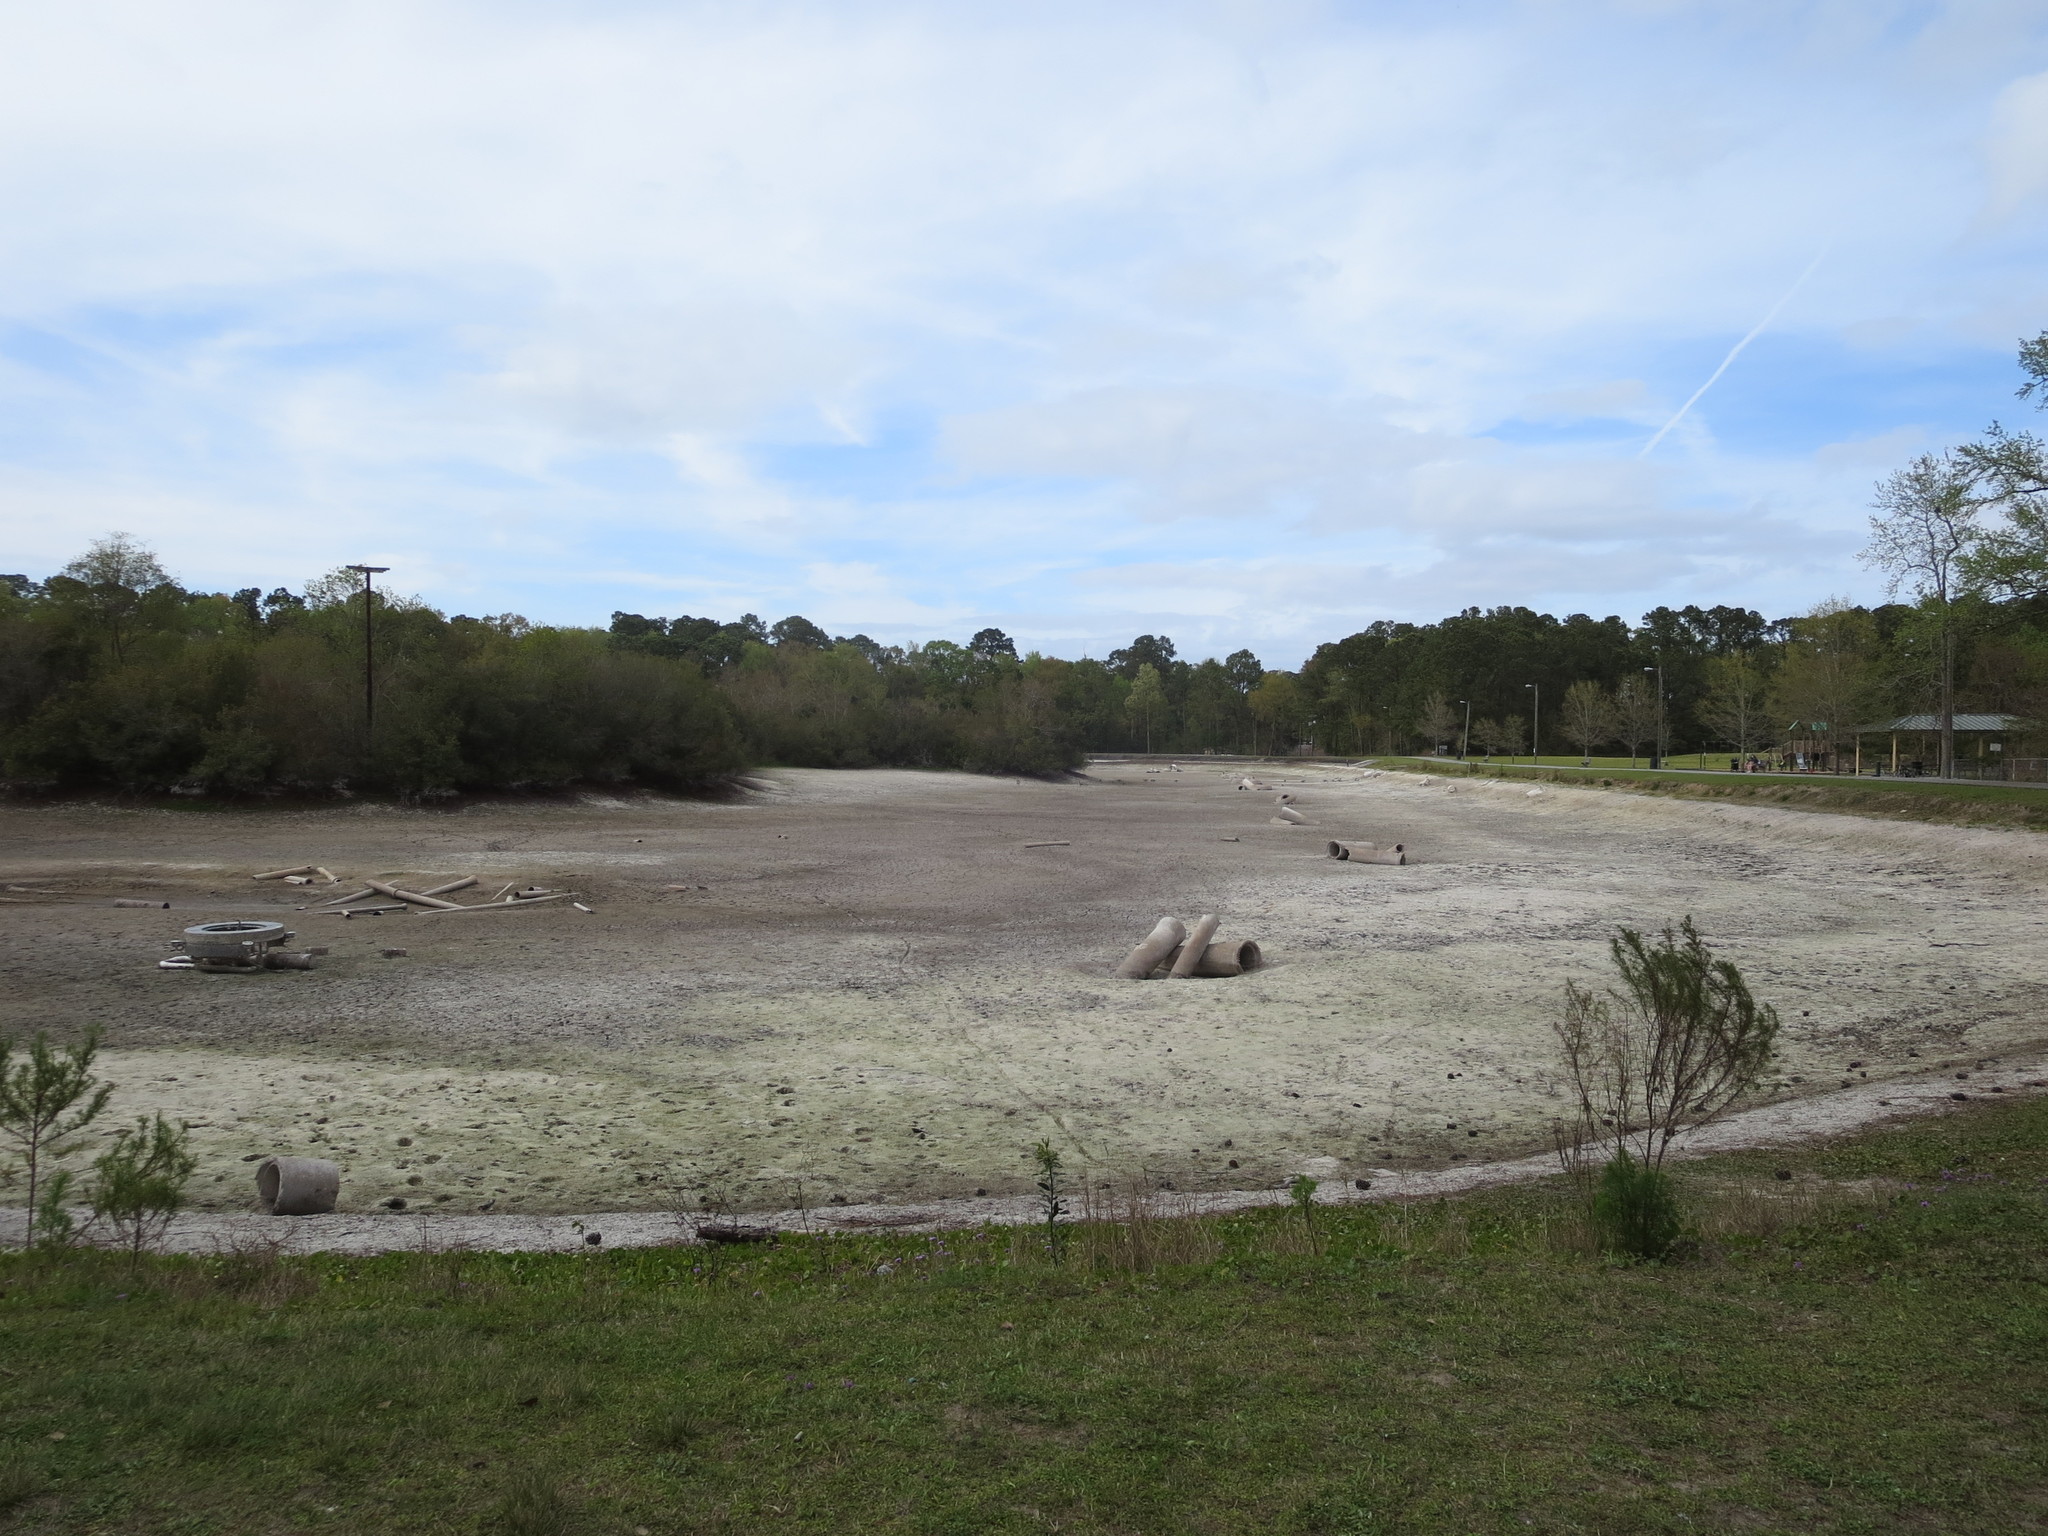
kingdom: Animalia
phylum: Chordata
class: Aves
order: Anseriformes
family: Anatidae
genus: Branta
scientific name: Branta canadensis
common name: Canada goose
